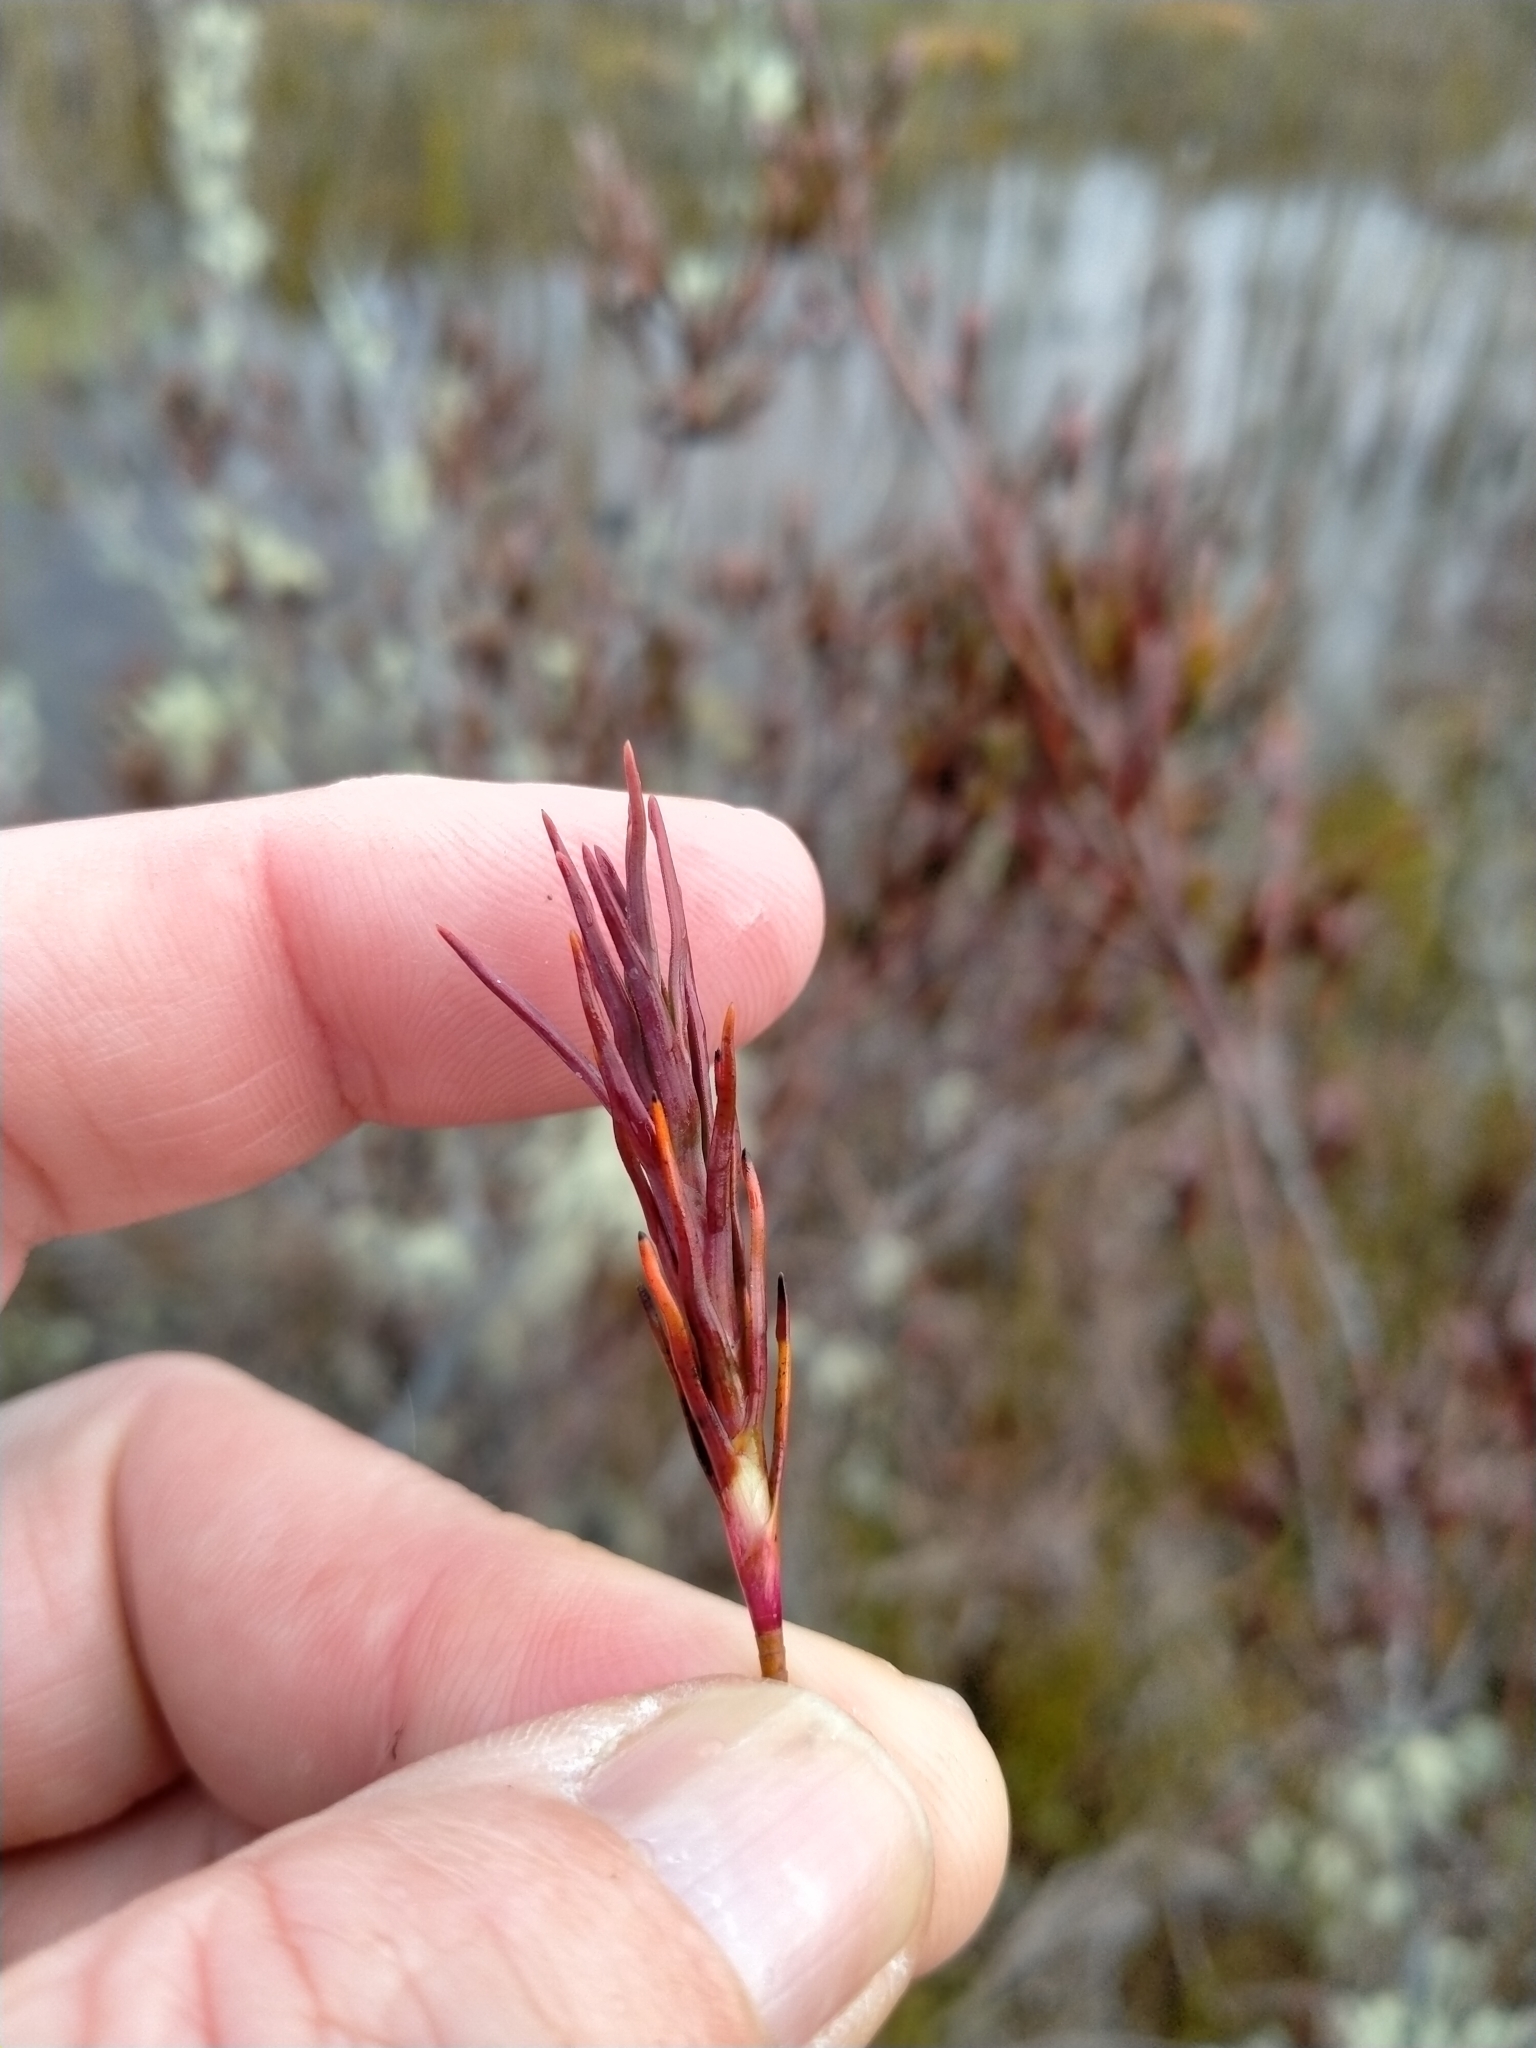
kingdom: Plantae
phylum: Tracheophyta
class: Magnoliopsida
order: Ericales
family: Ericaceae
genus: Dracophyllum
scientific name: Dracophyllum oliveri
